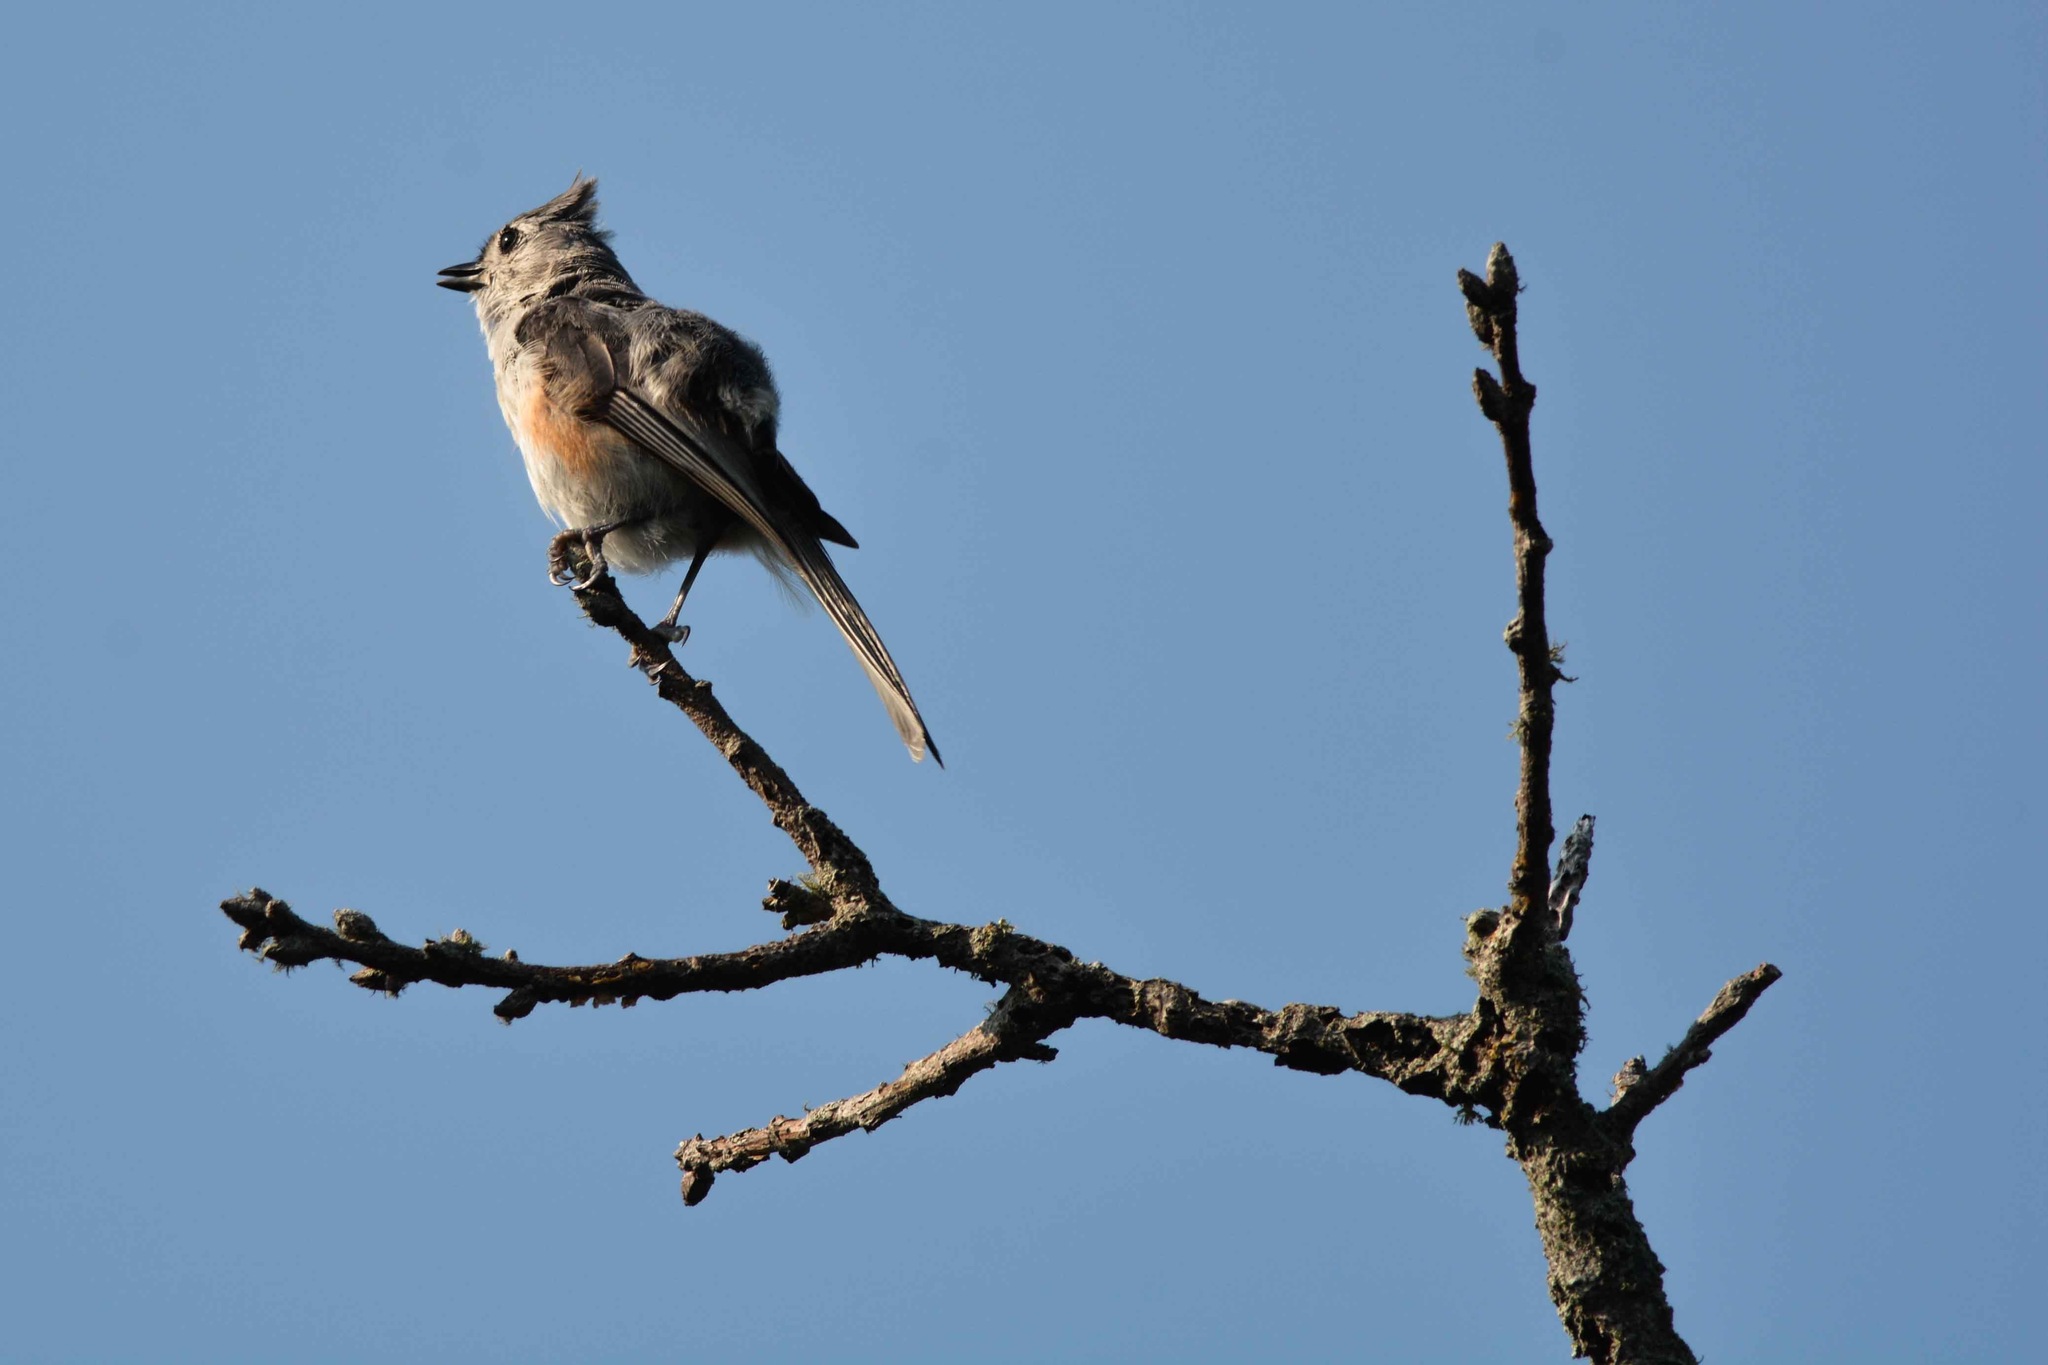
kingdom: Animalia
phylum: Chordata
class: Aves
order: Passeriformes
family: Paridae
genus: Baeolophus
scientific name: Baeolophus bicolor
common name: Tufted titmouse
